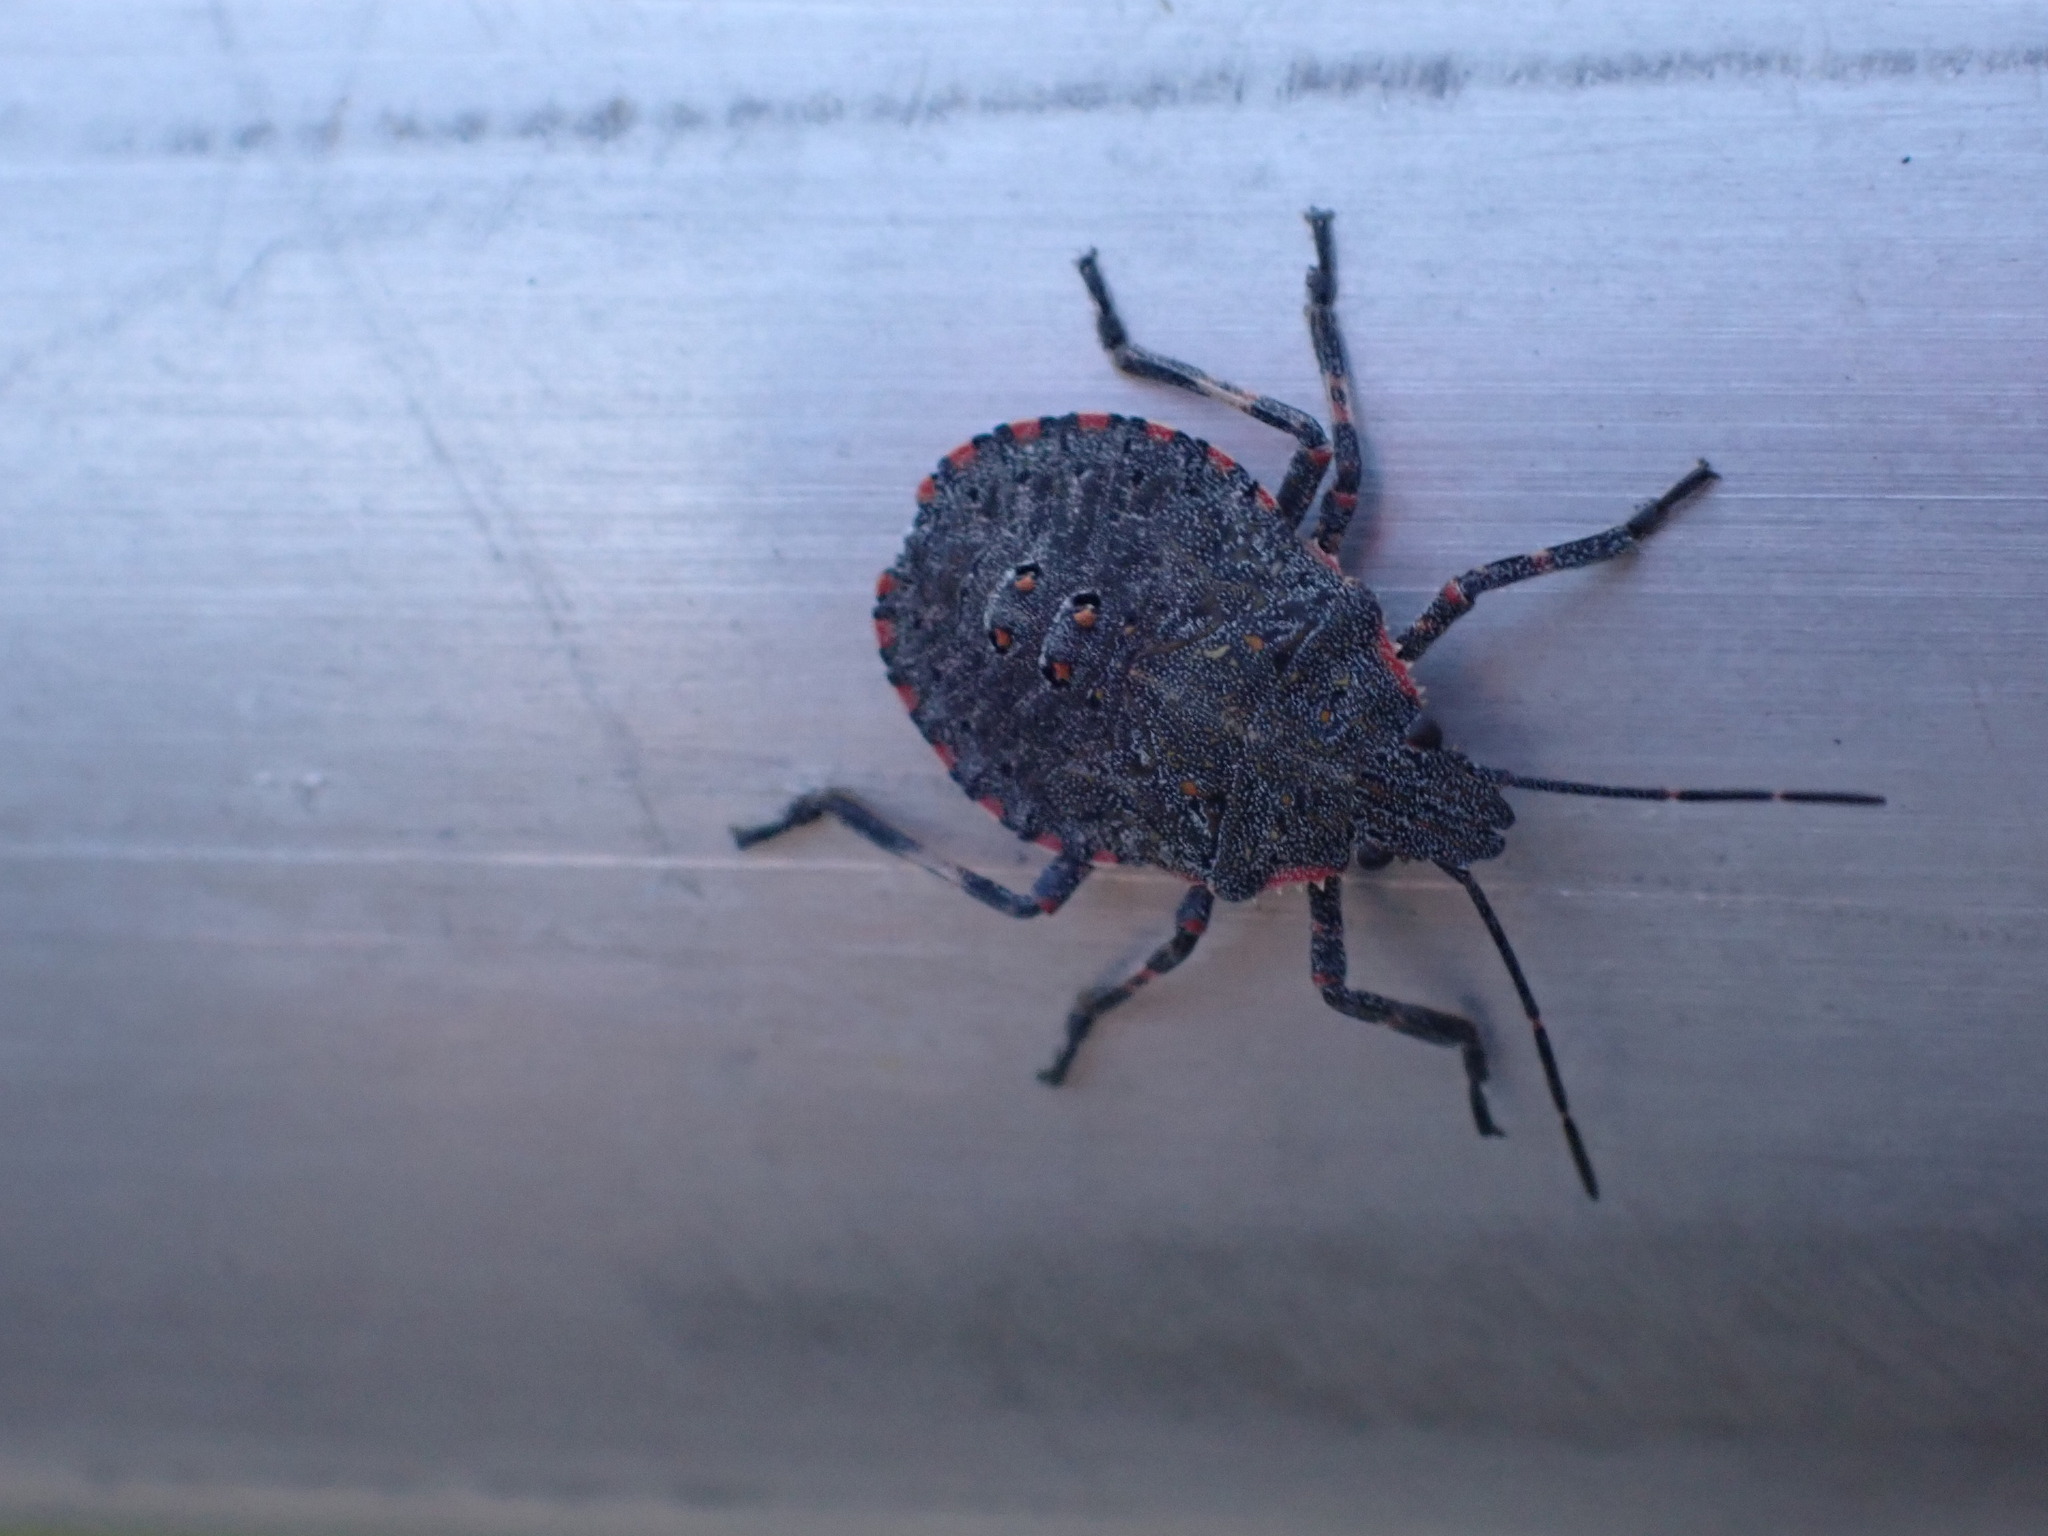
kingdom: Animalia
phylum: Arthropoda
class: Insecta
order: Hemiptera
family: Pentatomidae
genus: Brochymena
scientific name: Brochymena
